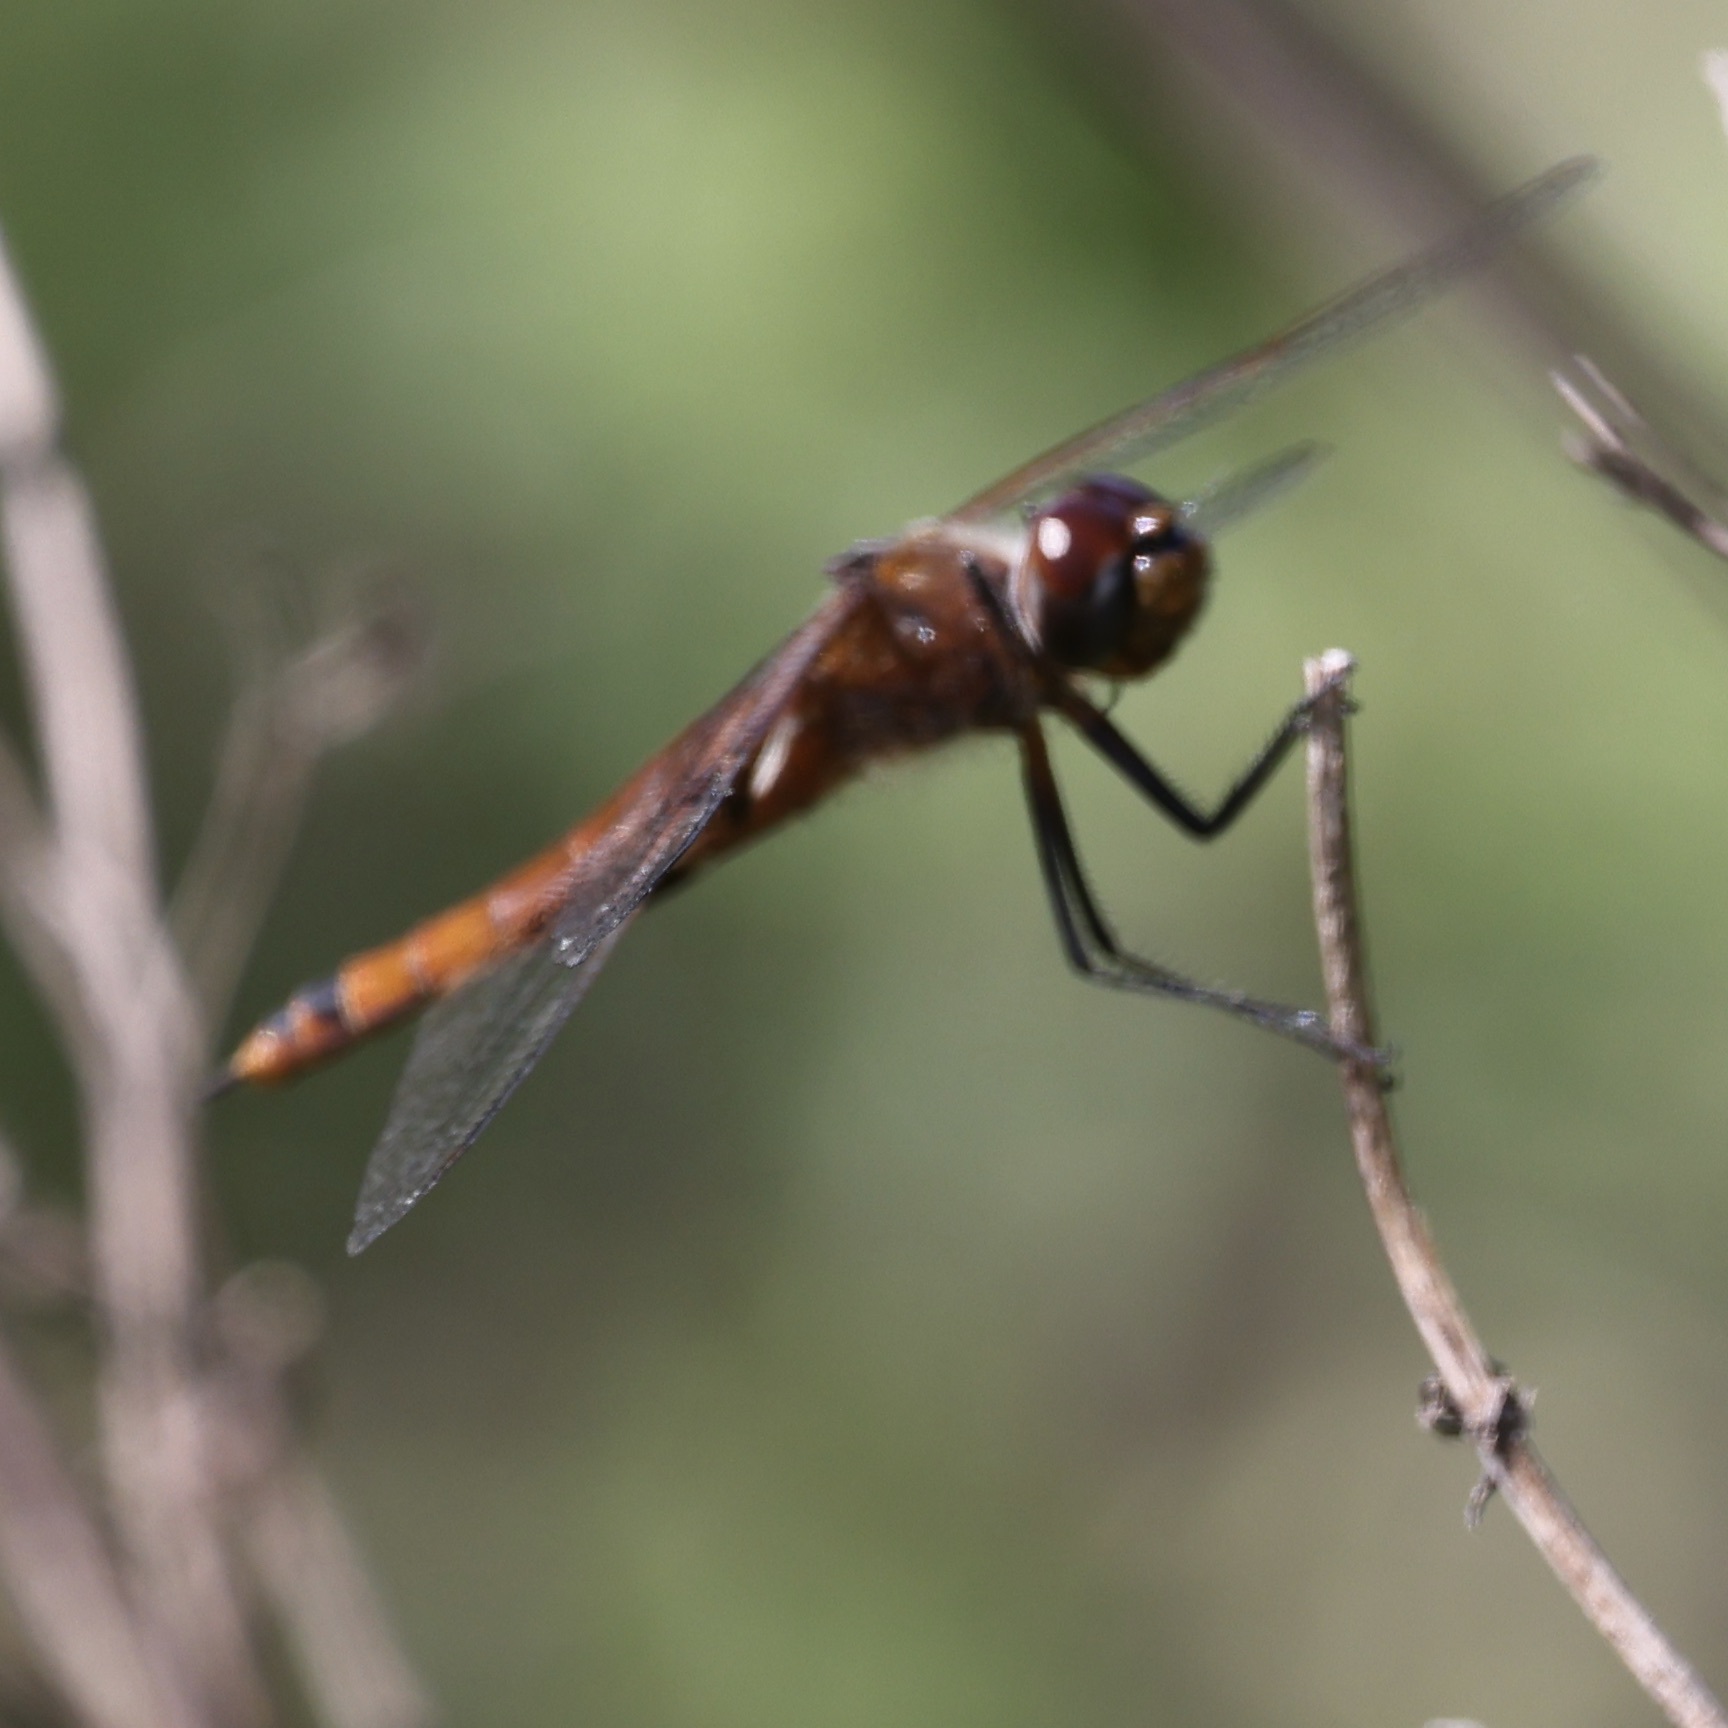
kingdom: Animalia
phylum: Arthropoda
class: Insecta
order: Odonata
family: Libellulidae
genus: Tramea
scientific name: Tramea carolina
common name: Carolina saddlebags
